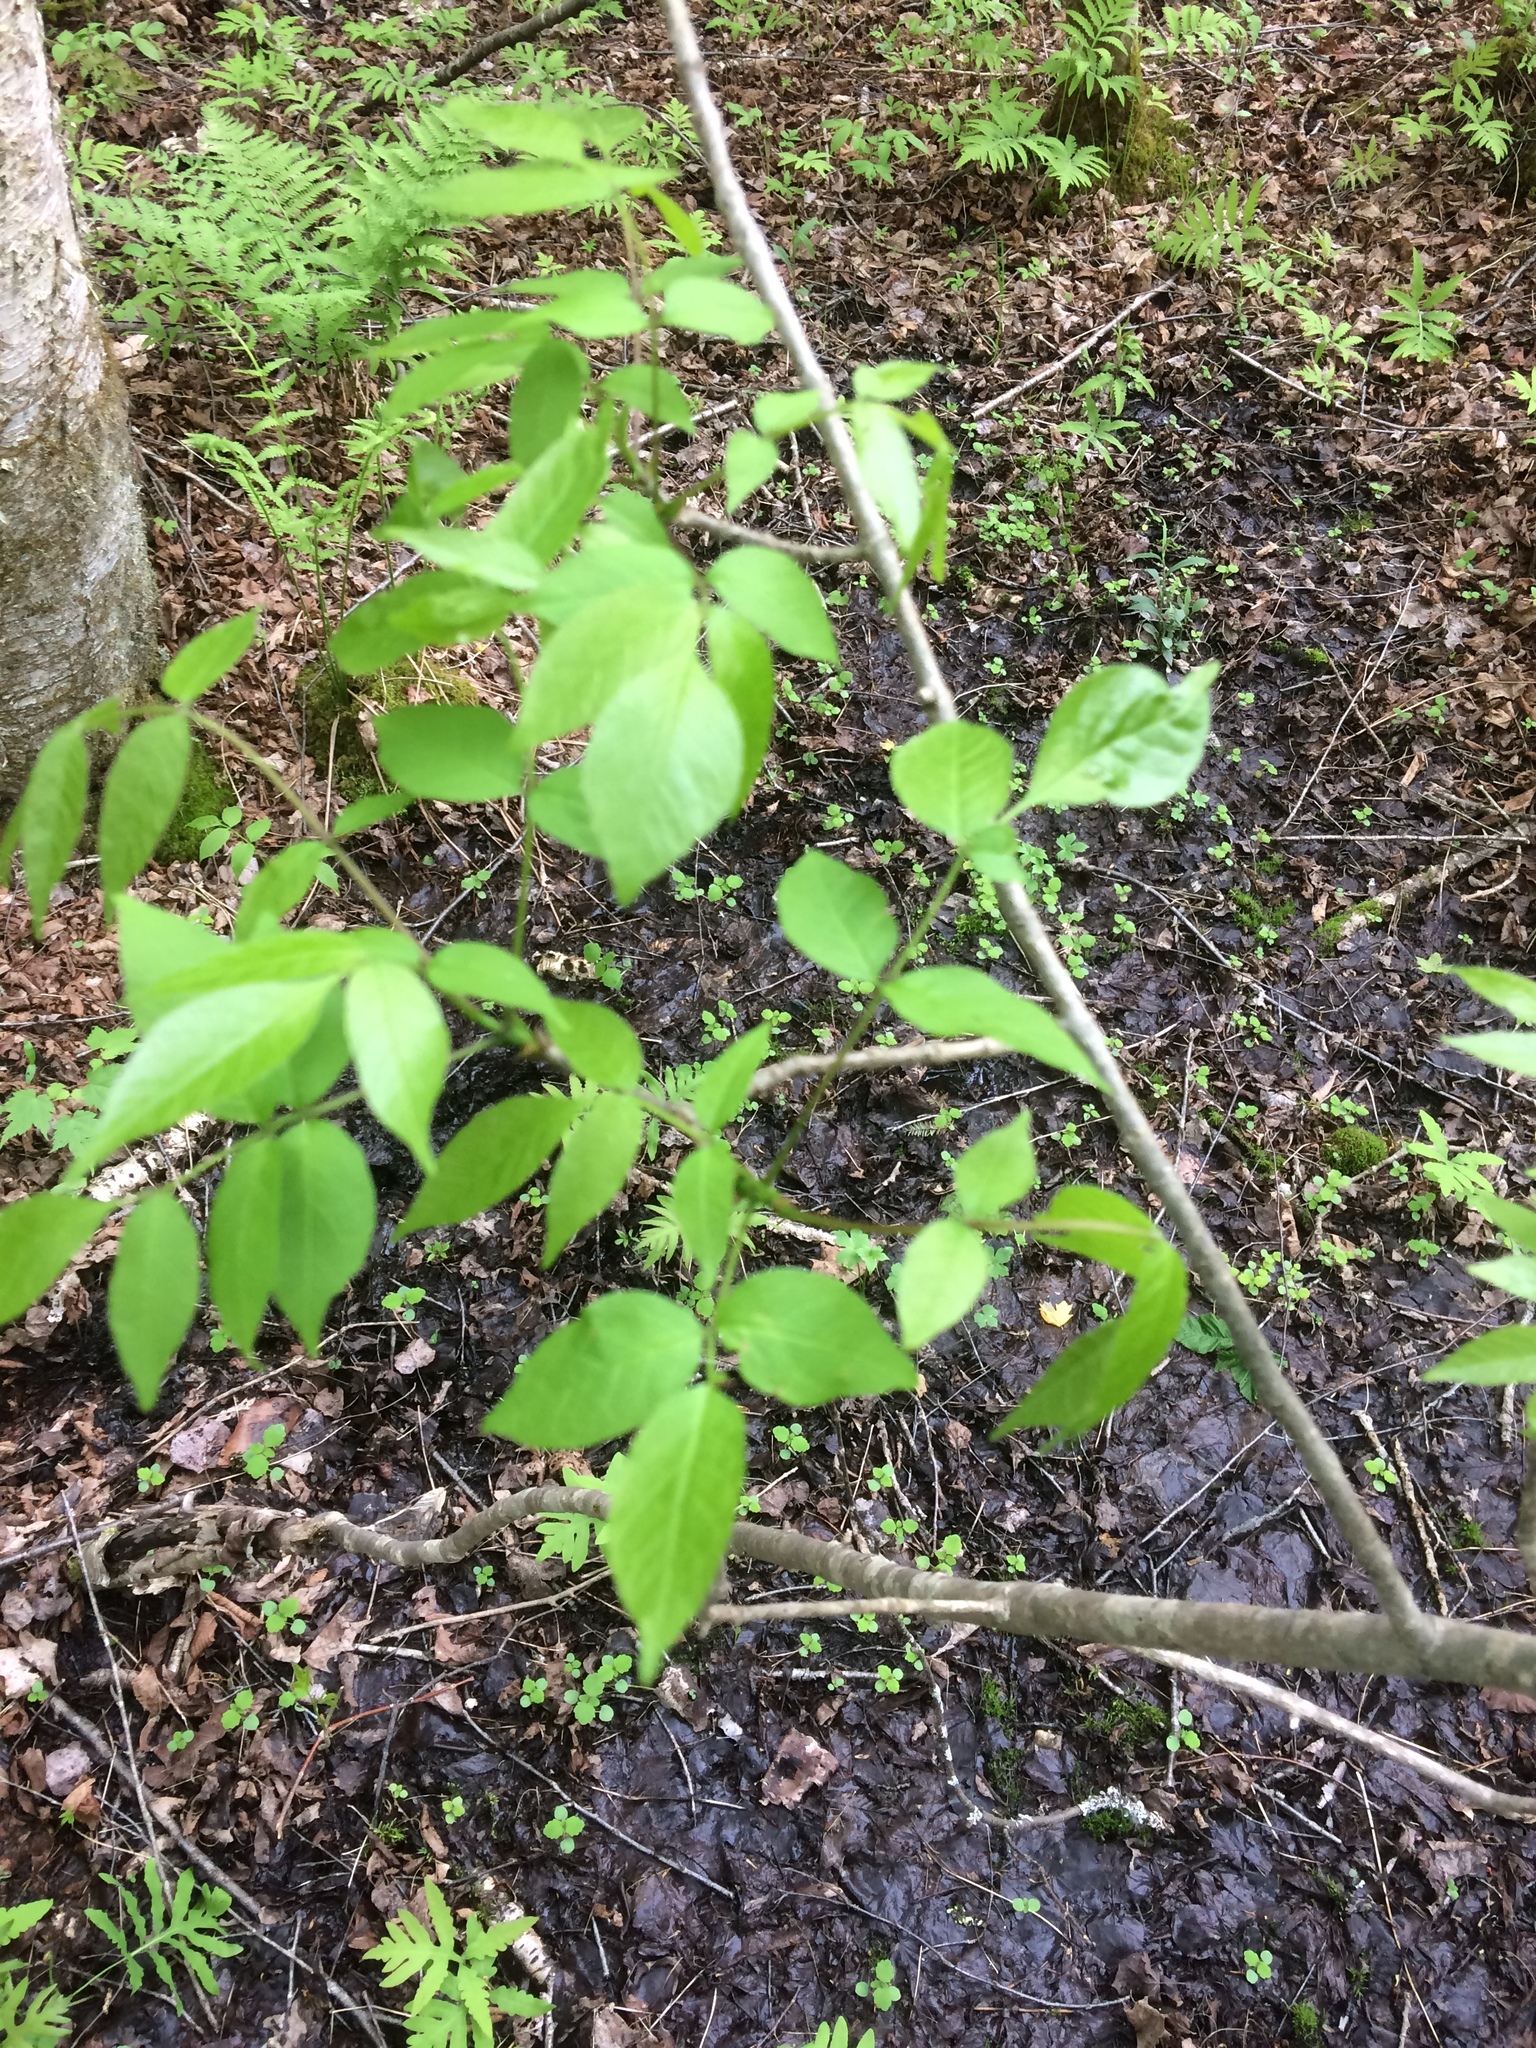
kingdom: Plantae
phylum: Tracheophyta
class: Magnoliopsida
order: Lamiales
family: Oleaceae
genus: Fraxinus
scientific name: Fraxinus pennsylvanica
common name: Green ash
